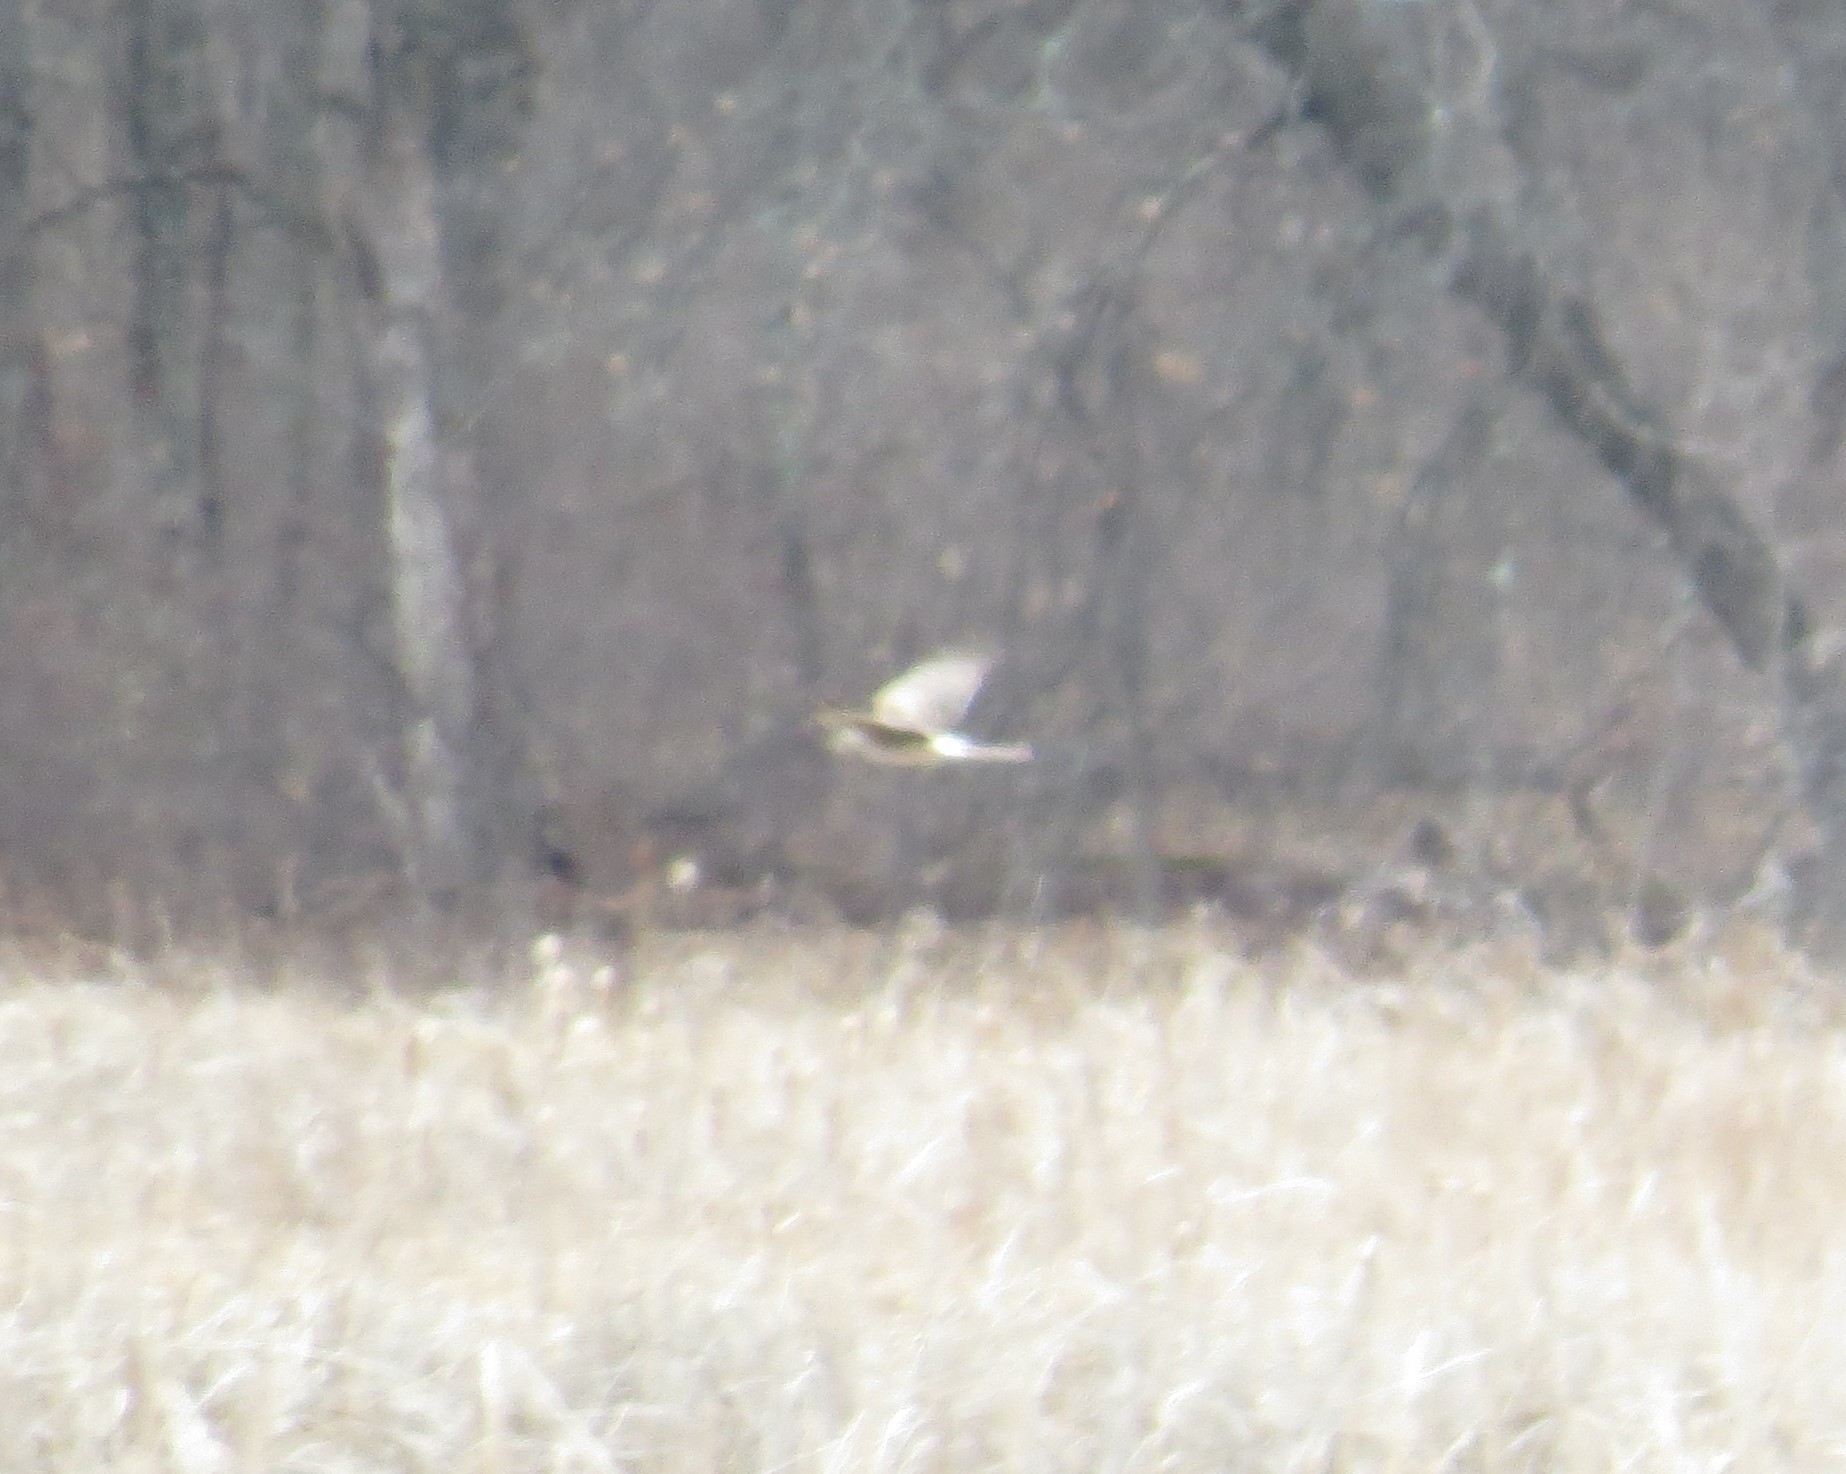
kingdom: Animalia
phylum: Chordata
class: Aves
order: Accipitriformes
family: Accipitridae
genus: Circus
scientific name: Circus cyaneus
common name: Hen harrier
